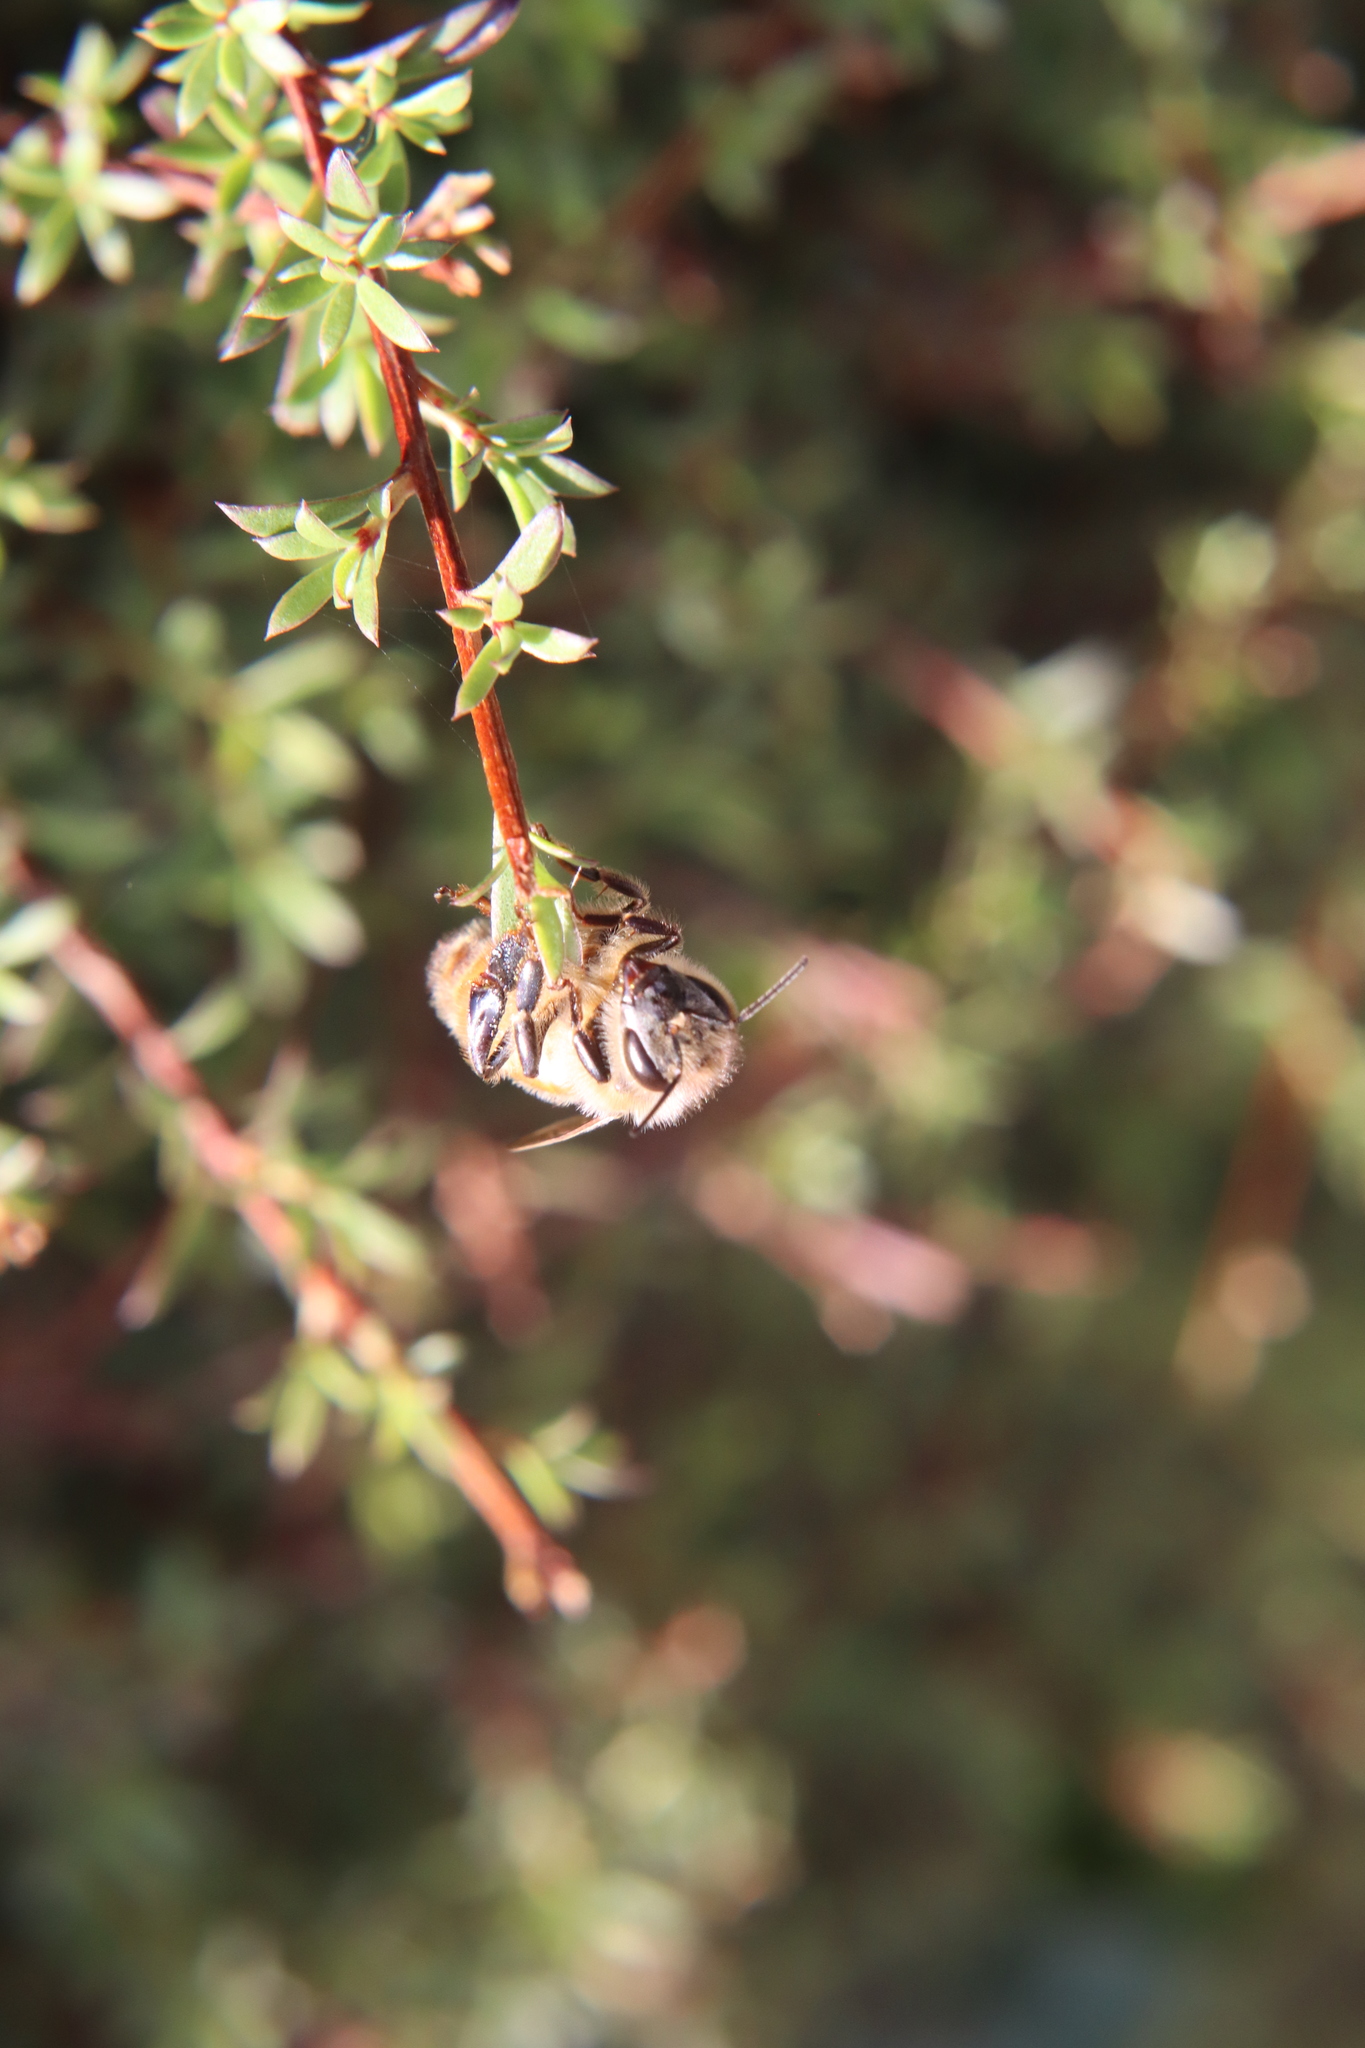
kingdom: Animalia
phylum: Arthropoda
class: Insecta
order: Hymenoptera
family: Apidae
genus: Apis
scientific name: Apis mellifera
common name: Honey bee
